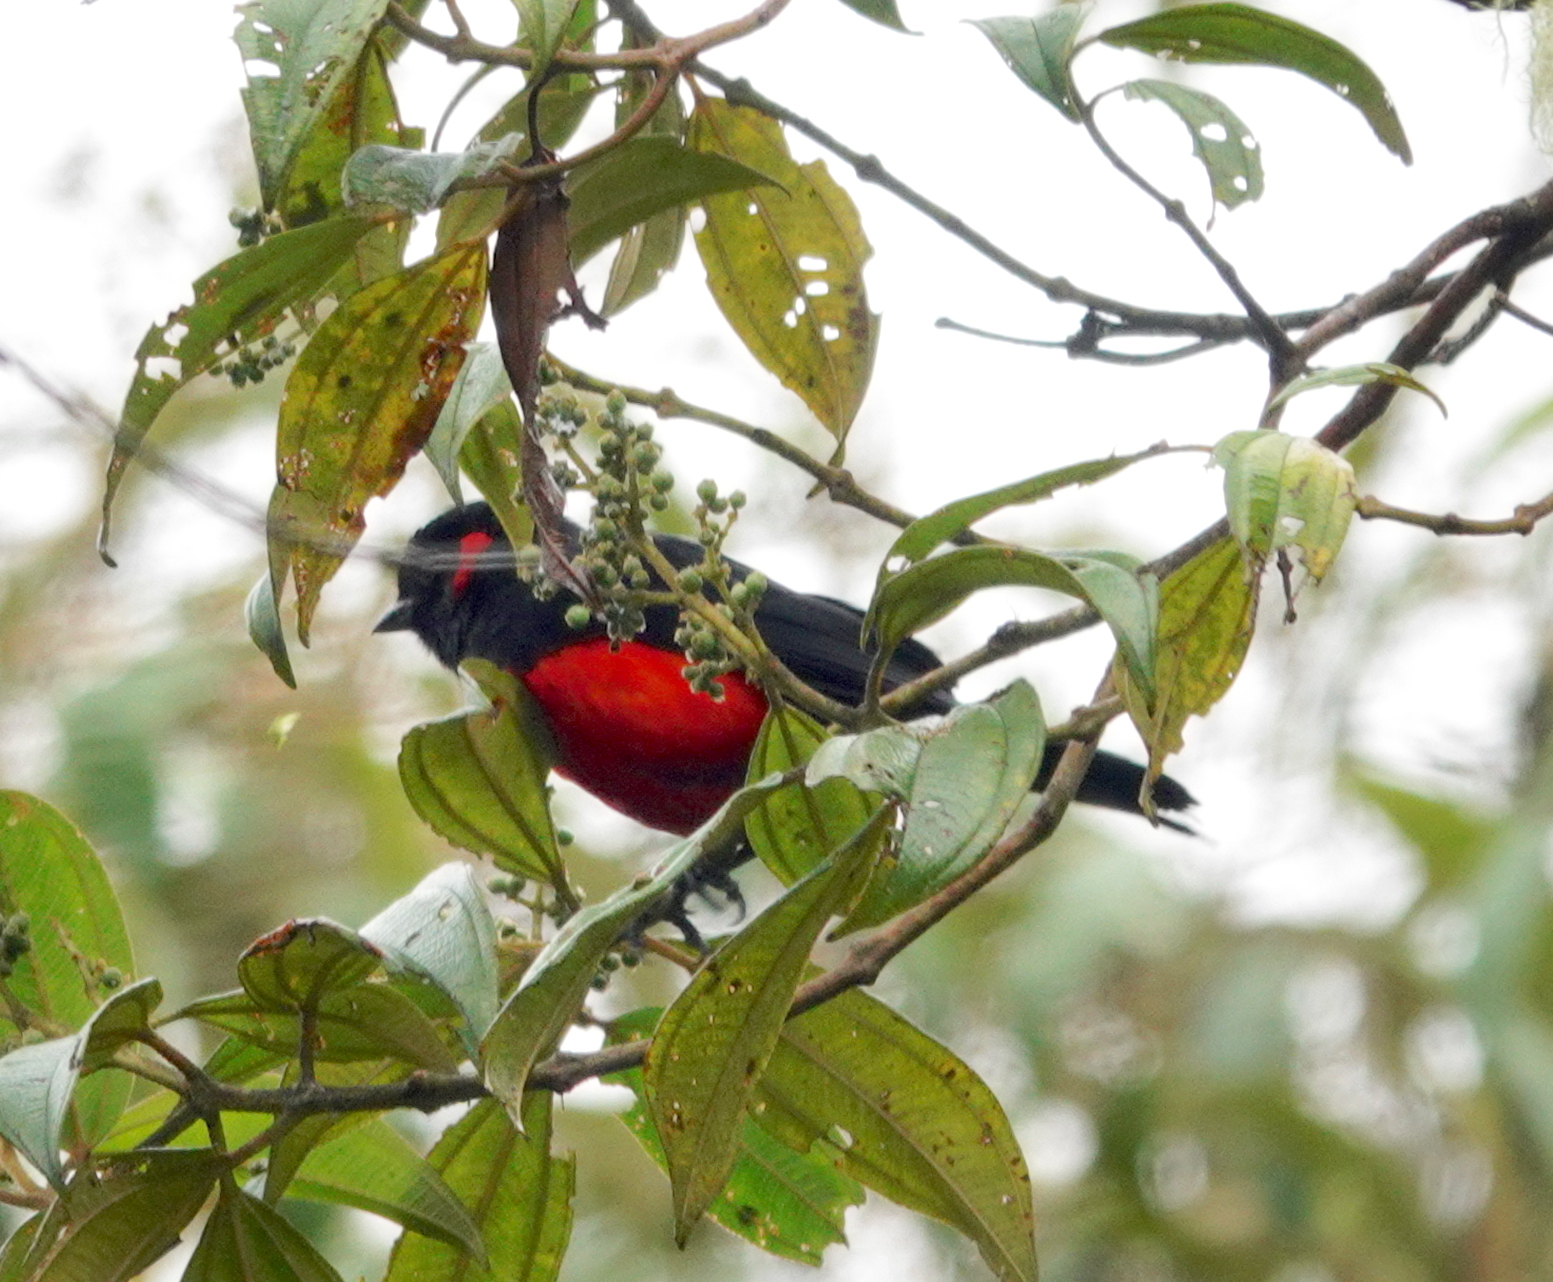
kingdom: Animalia
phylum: Chordata
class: Aves
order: Passeriformes
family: Thraupidae
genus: Anisognathus
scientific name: Anisognathus igniventris
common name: Scarlet-bellied mountain tanager
